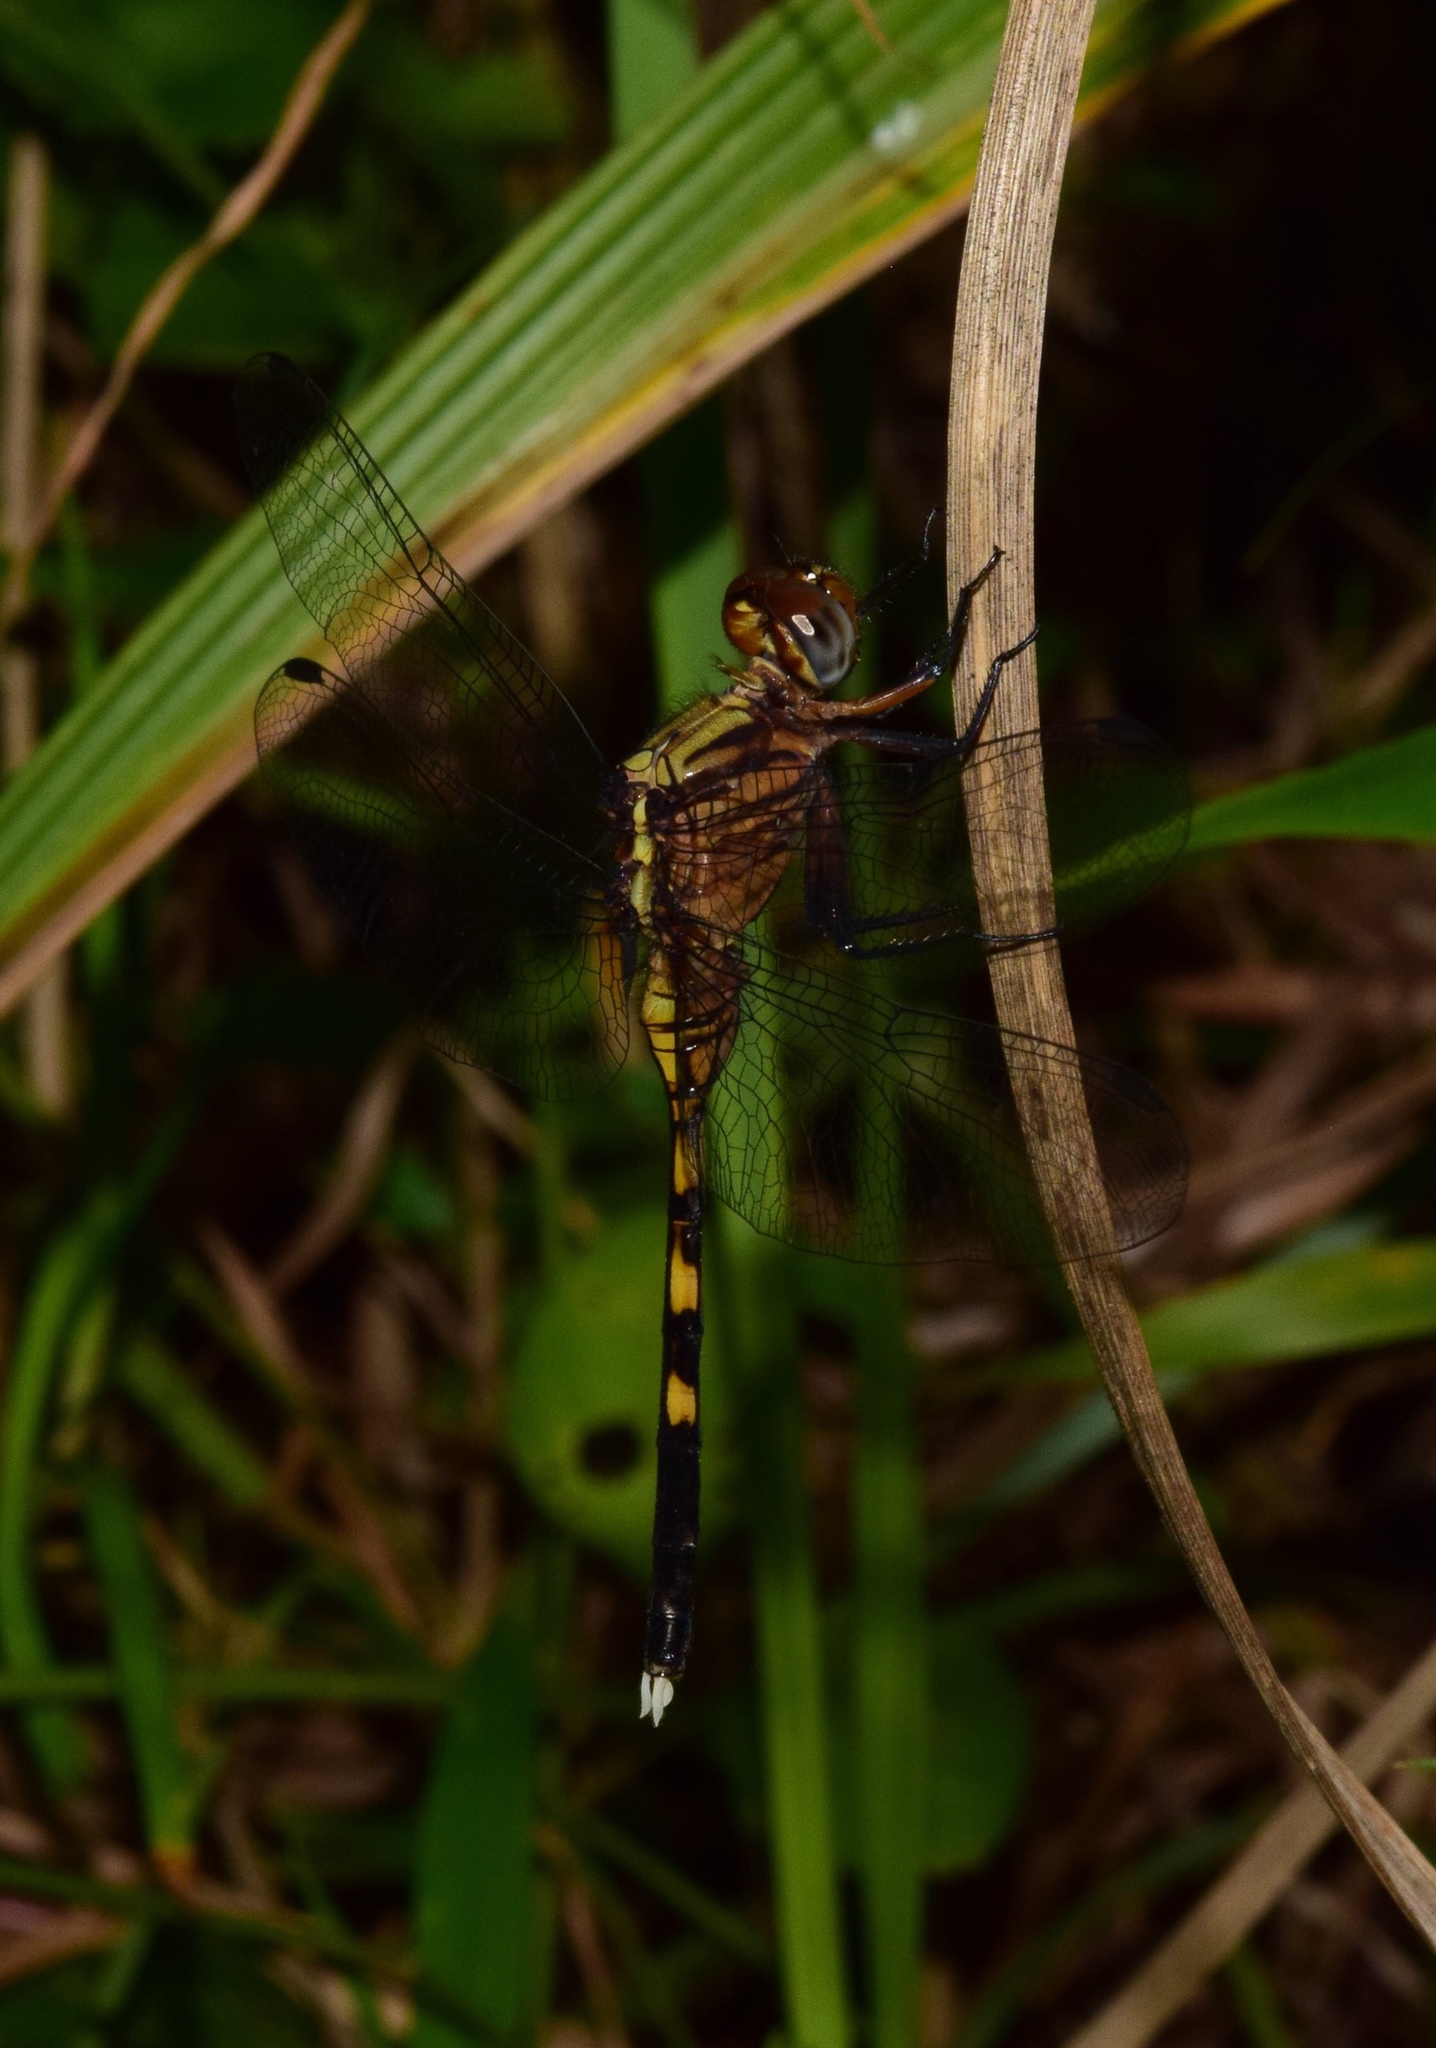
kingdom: Animalia
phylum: Arthropoda
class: Insecta
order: Odonata
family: Libellulidae
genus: Orthetrum
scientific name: Orthetrum julia
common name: Julia skimmer
